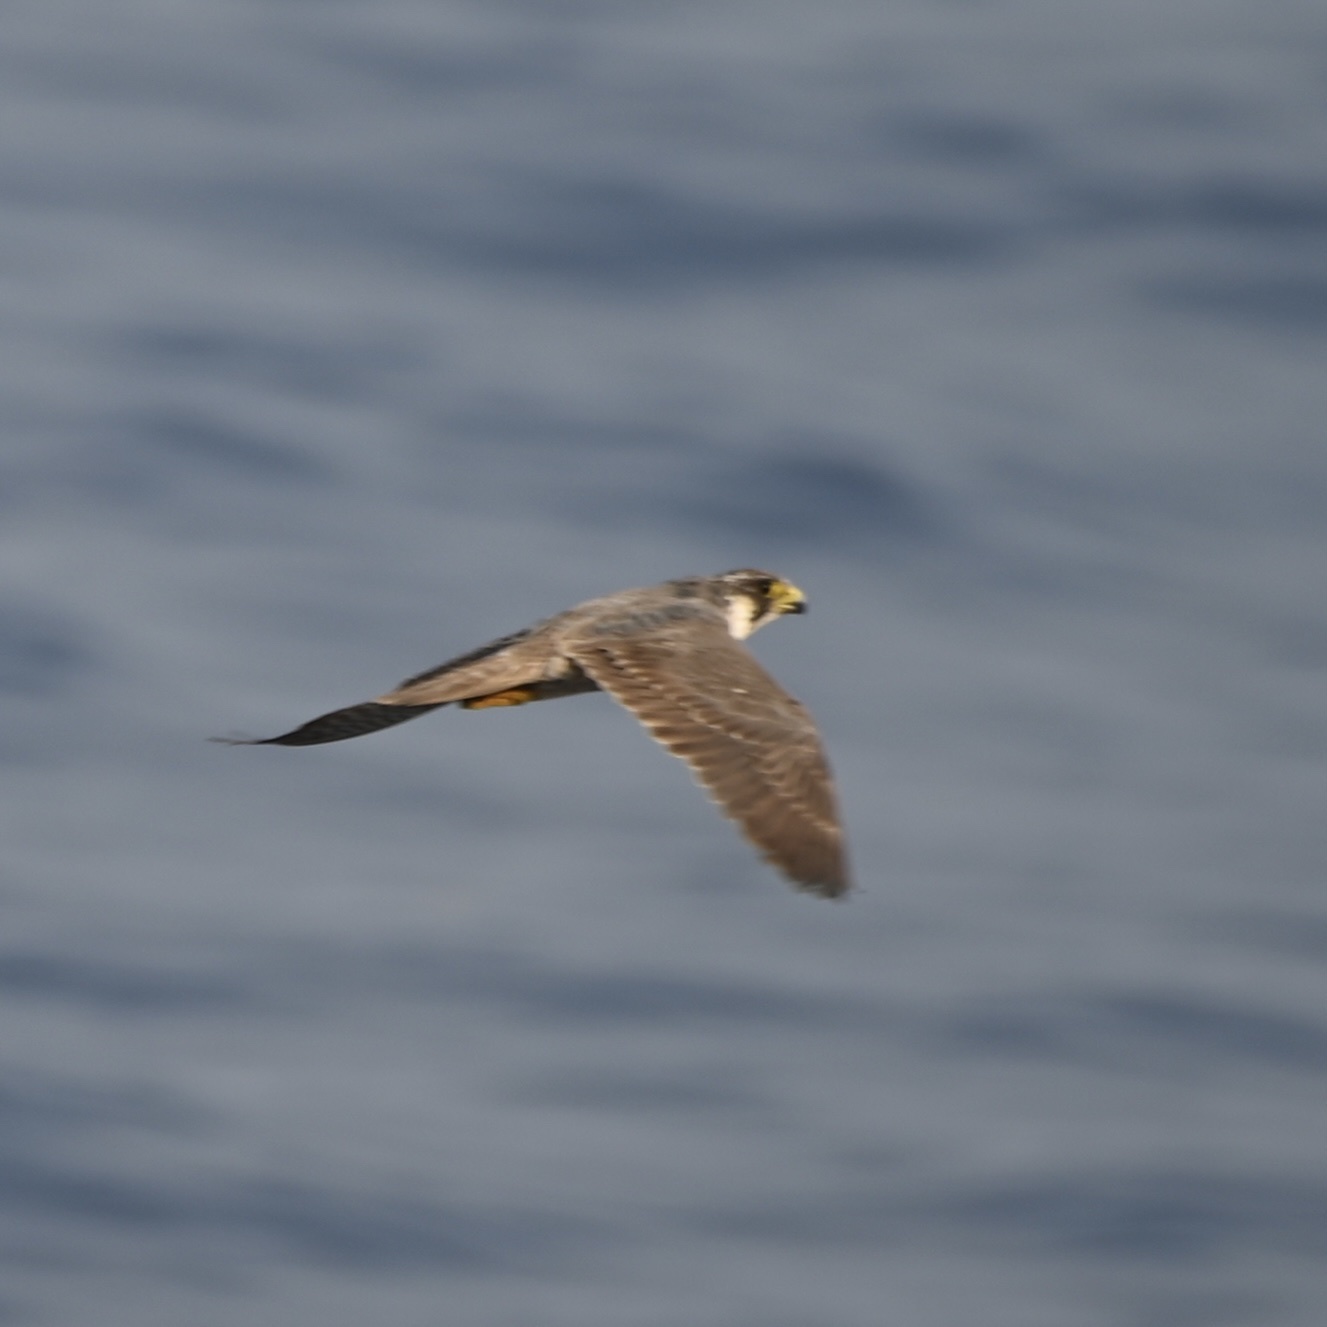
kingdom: Animalia
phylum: Chordata
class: Aves
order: Falconiformes
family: Falconidae
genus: Falco
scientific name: Falco peregrinus
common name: Peregrine falcon
